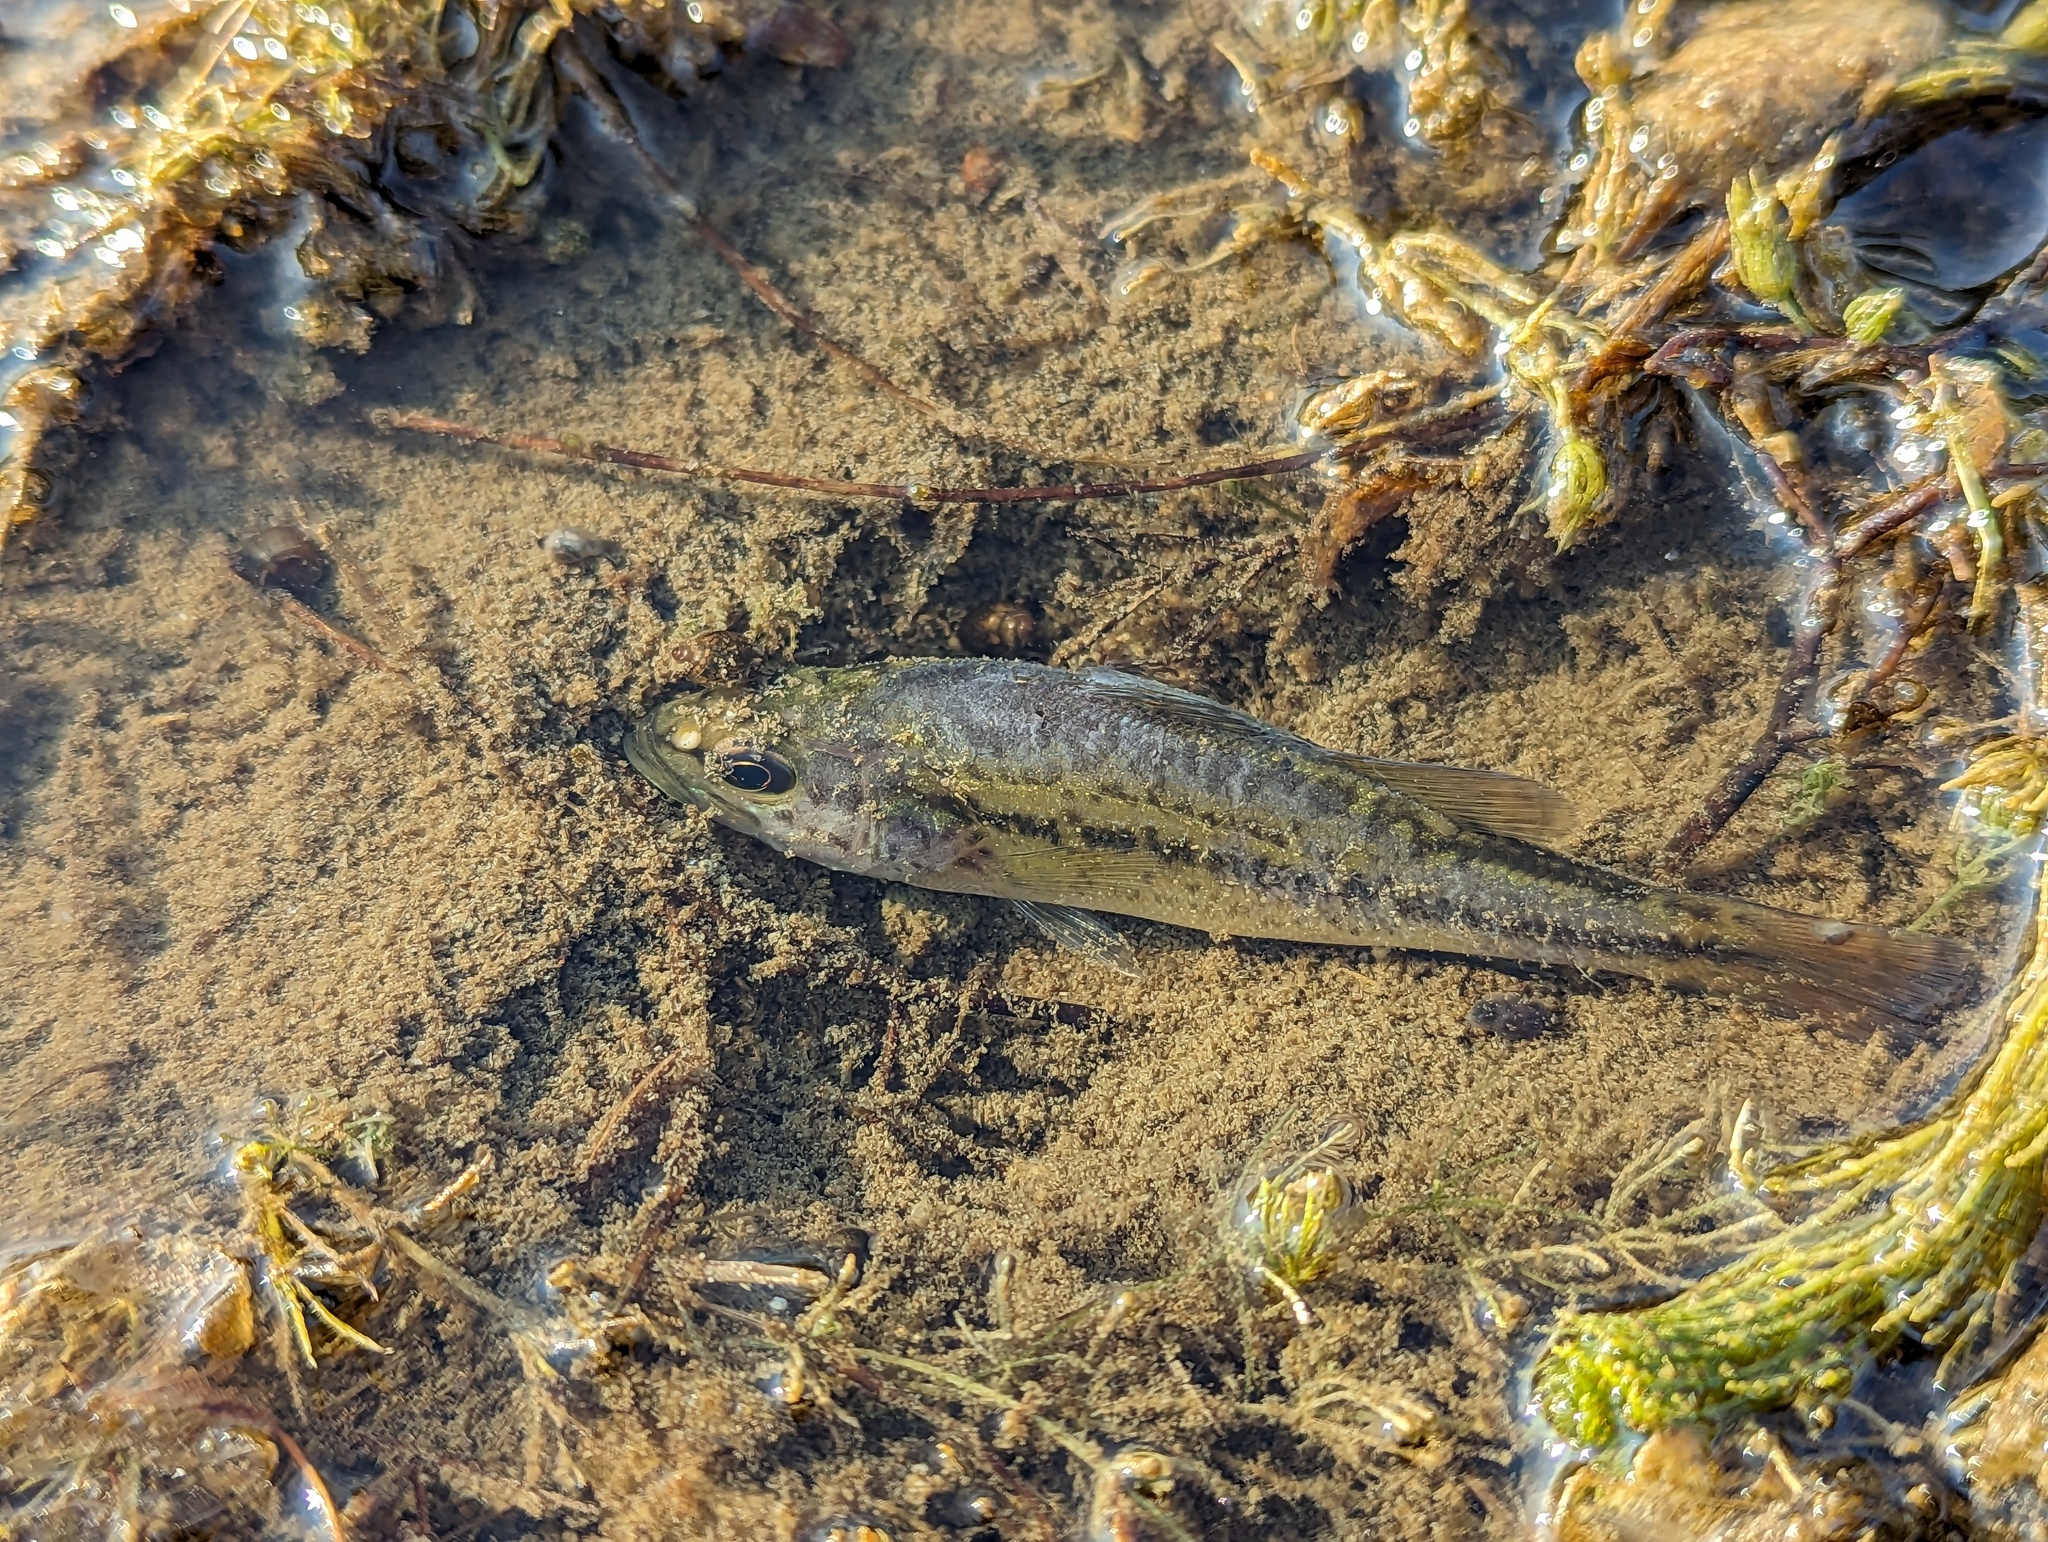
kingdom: Animalia
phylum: Chordata
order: Perciformes
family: Centrarchidae
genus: Micropterus
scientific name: Micropterus
